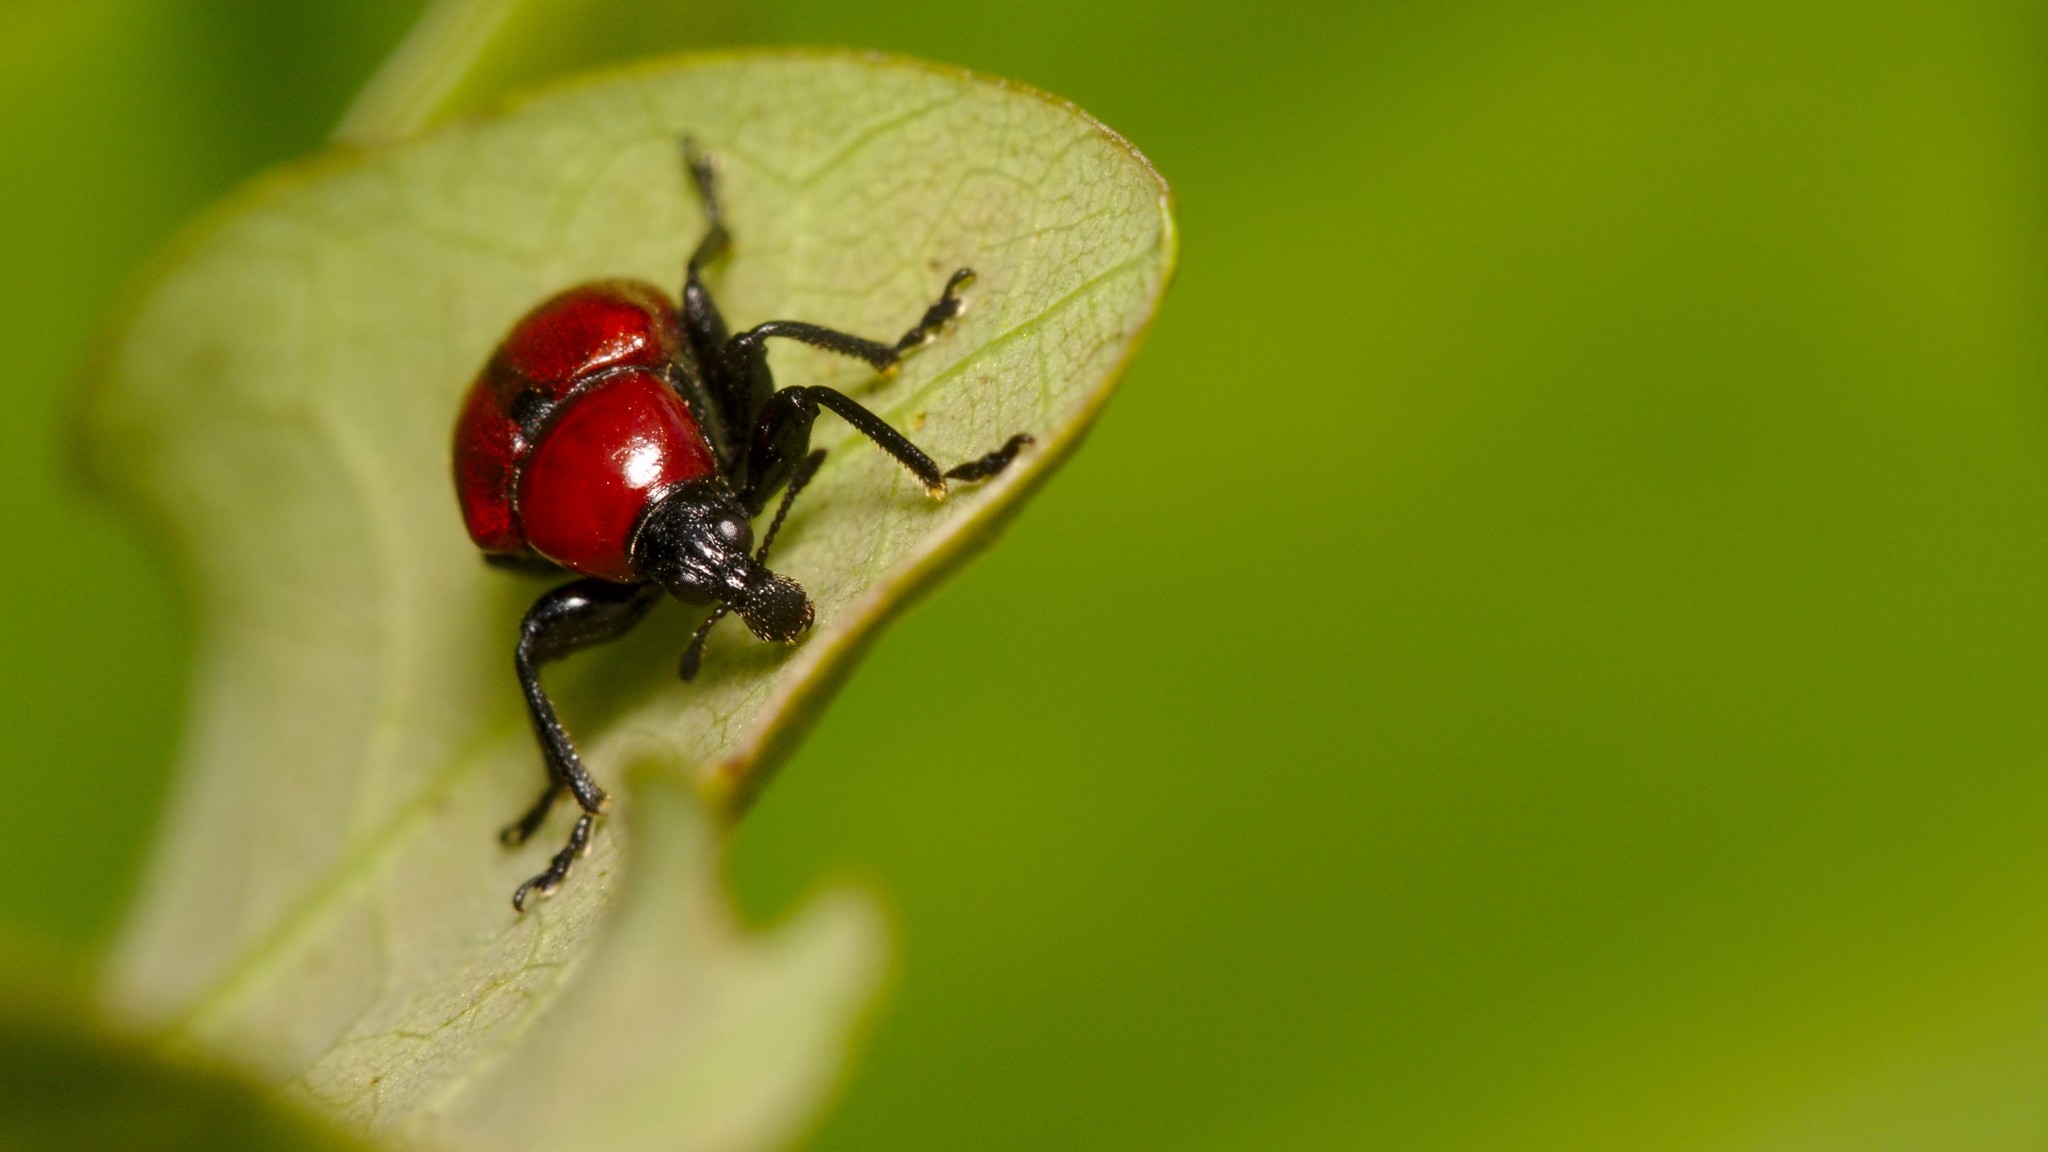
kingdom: Animalia
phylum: Arthropoda
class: Insecta
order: Coleoptera
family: Attelabidae
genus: Attelabus
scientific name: Attelabus nitens
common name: Oak leaf-roller
